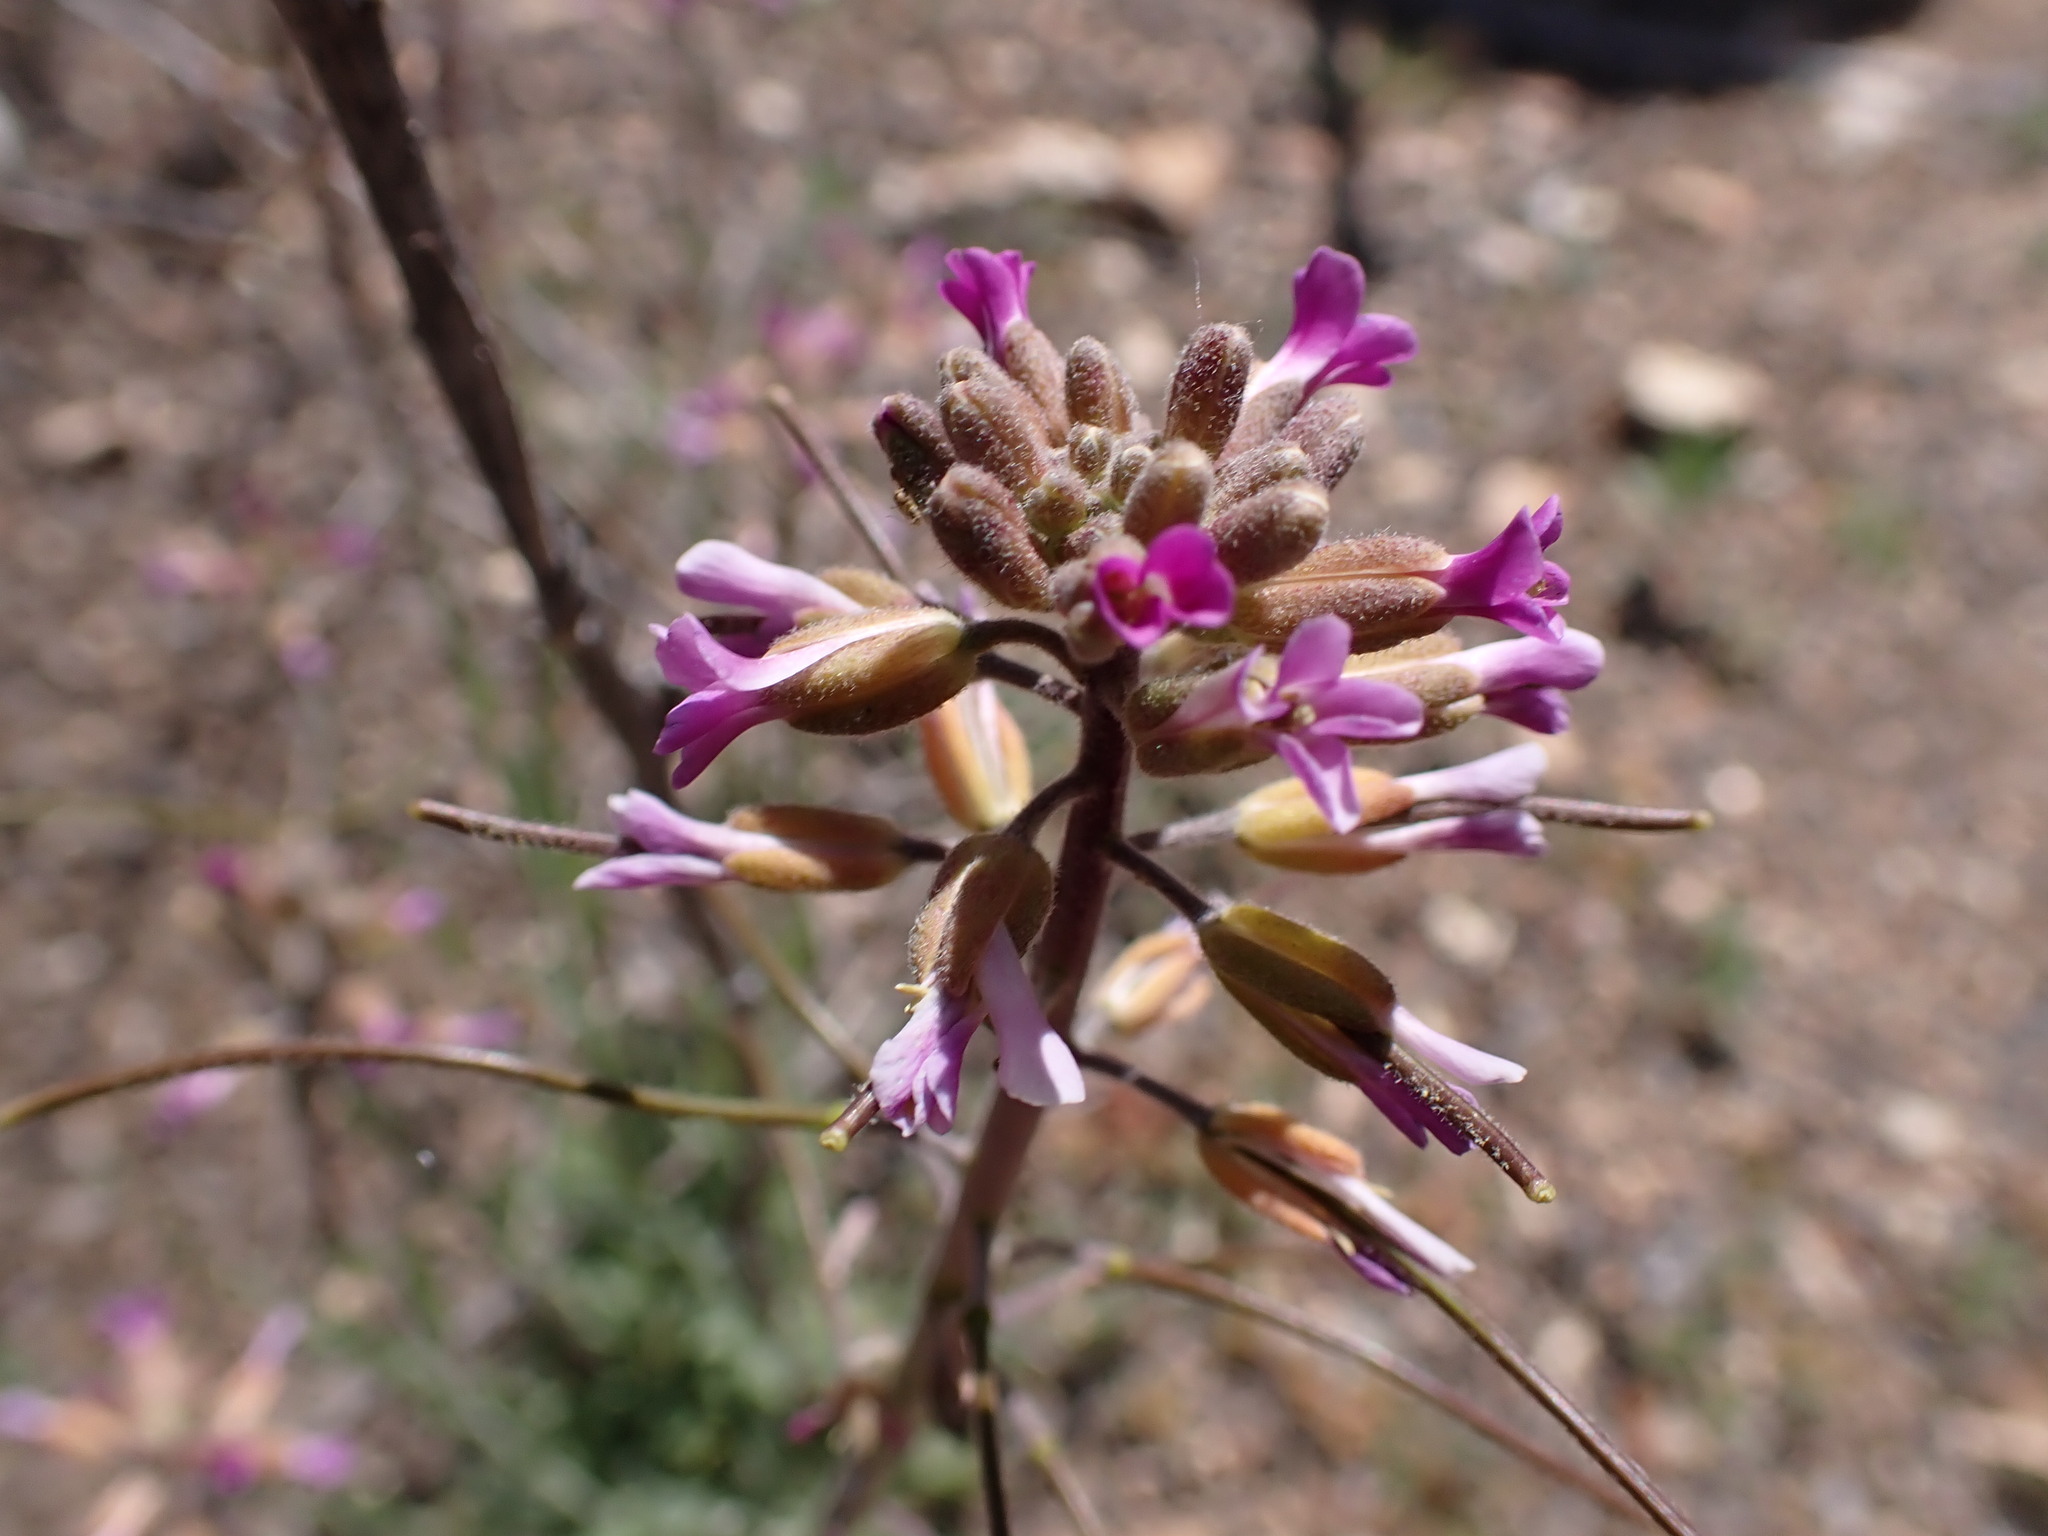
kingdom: Plantae
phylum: Tracheophyta
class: Magnoliopsida
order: Brassicales
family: Brassicaceae
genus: Boechera
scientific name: Boechera californica
